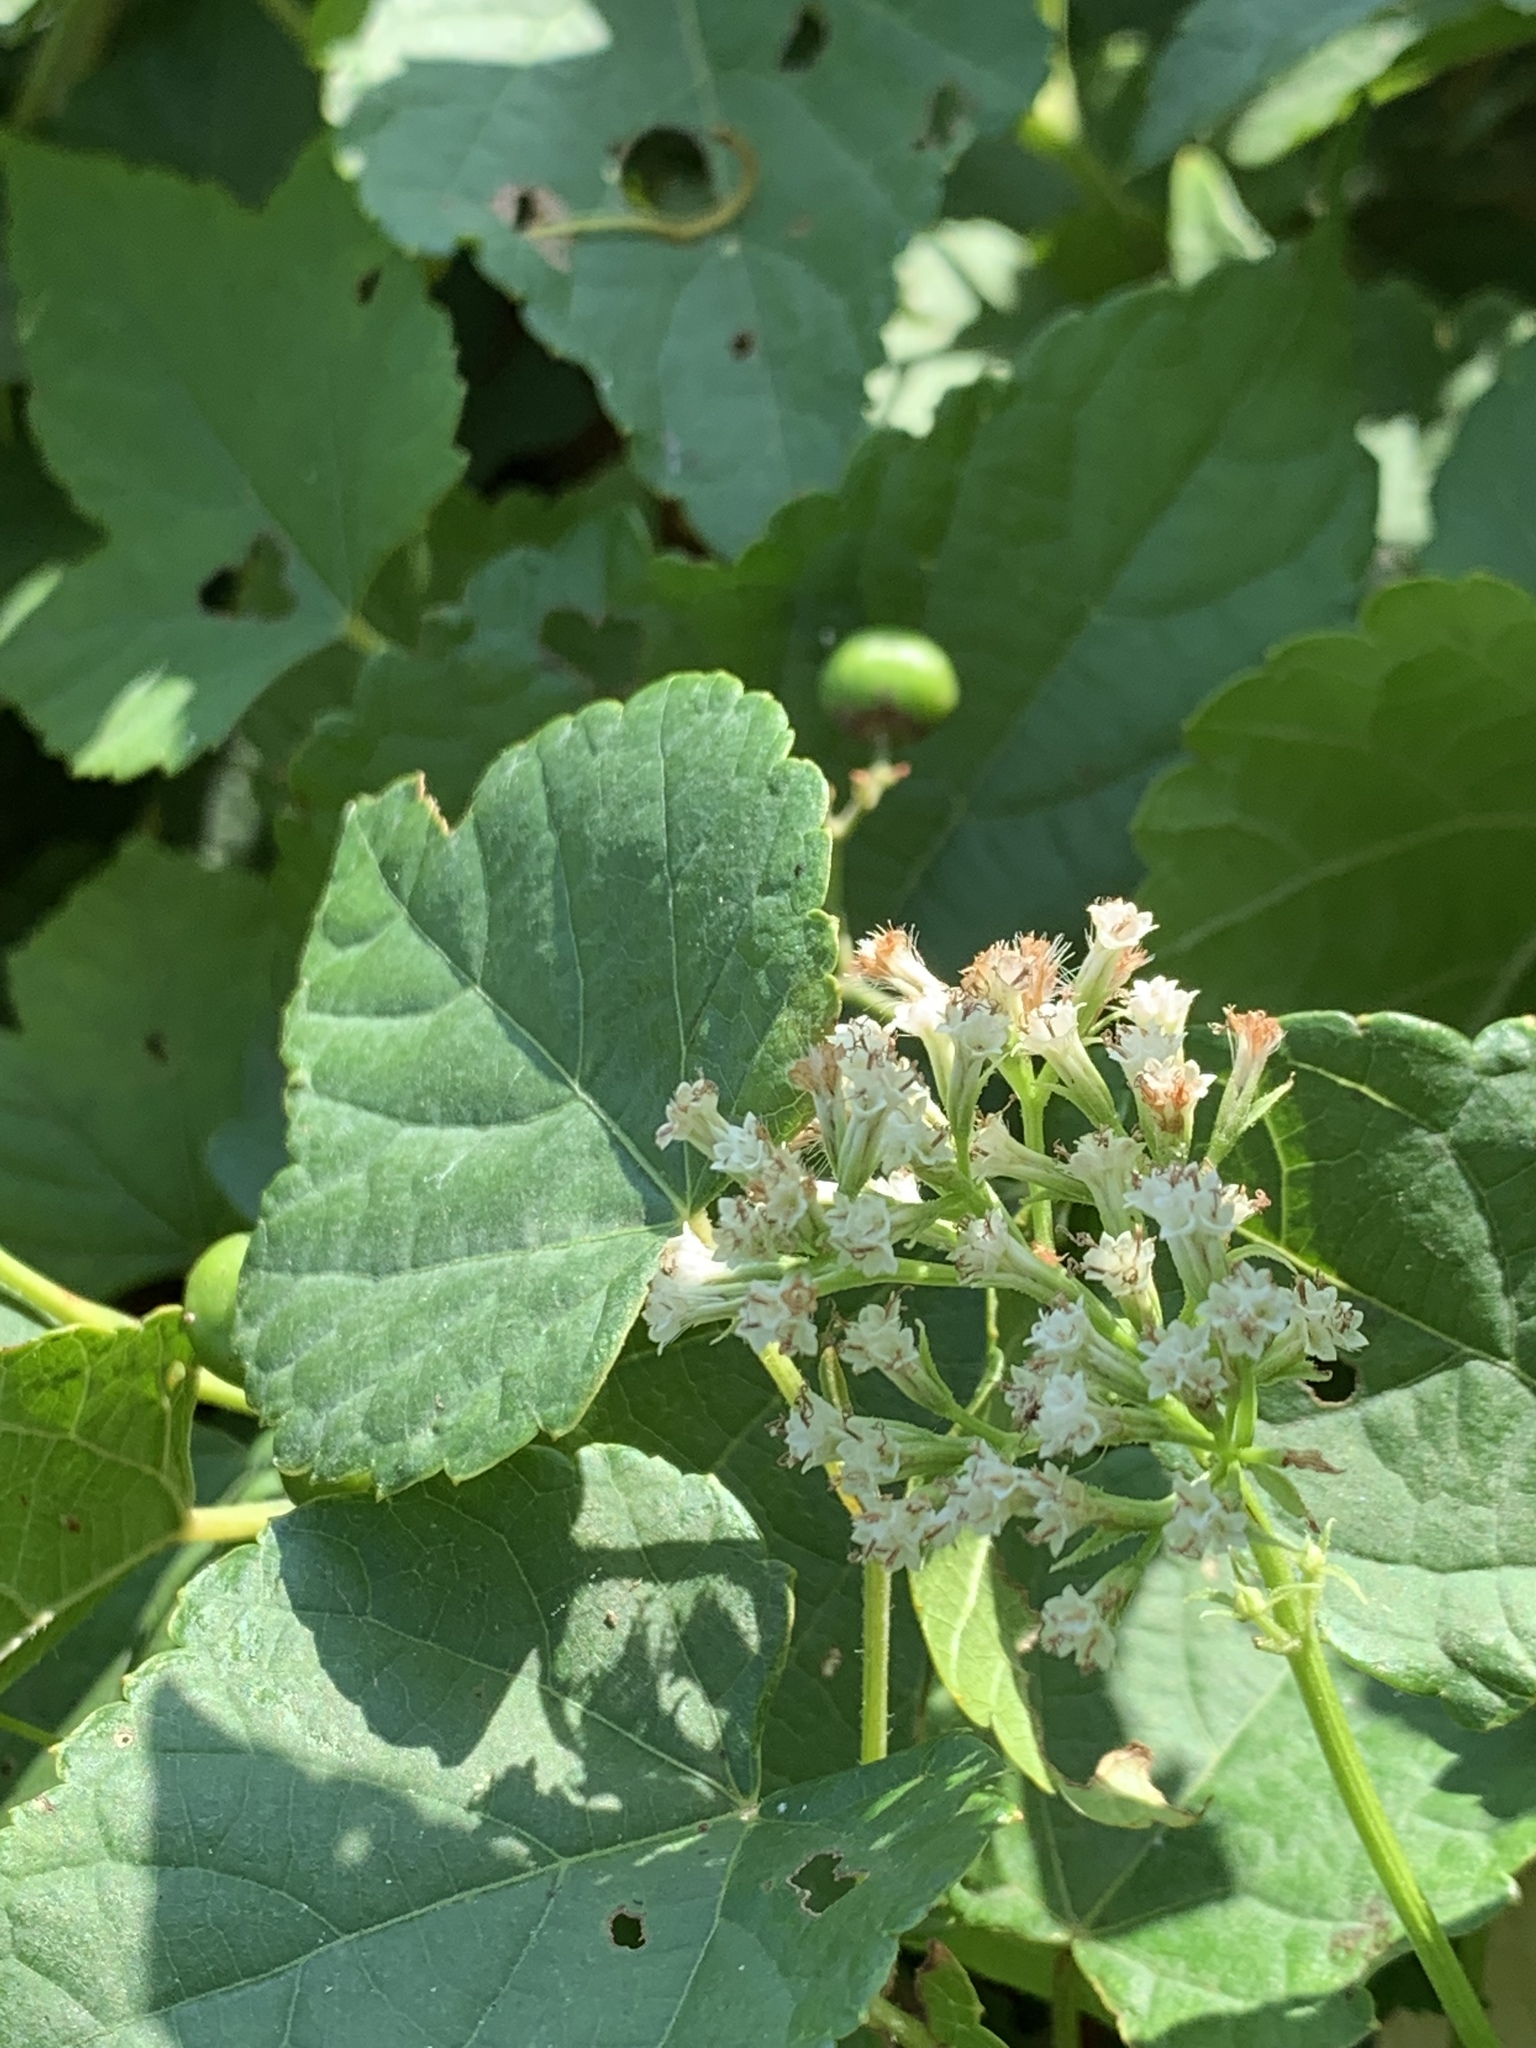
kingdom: Plantae
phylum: Tracheophyta
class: Magnoliopsida
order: Asterales
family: Asteraceae
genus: Mikania
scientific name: Mikania scandens
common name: Climbing hempvine
